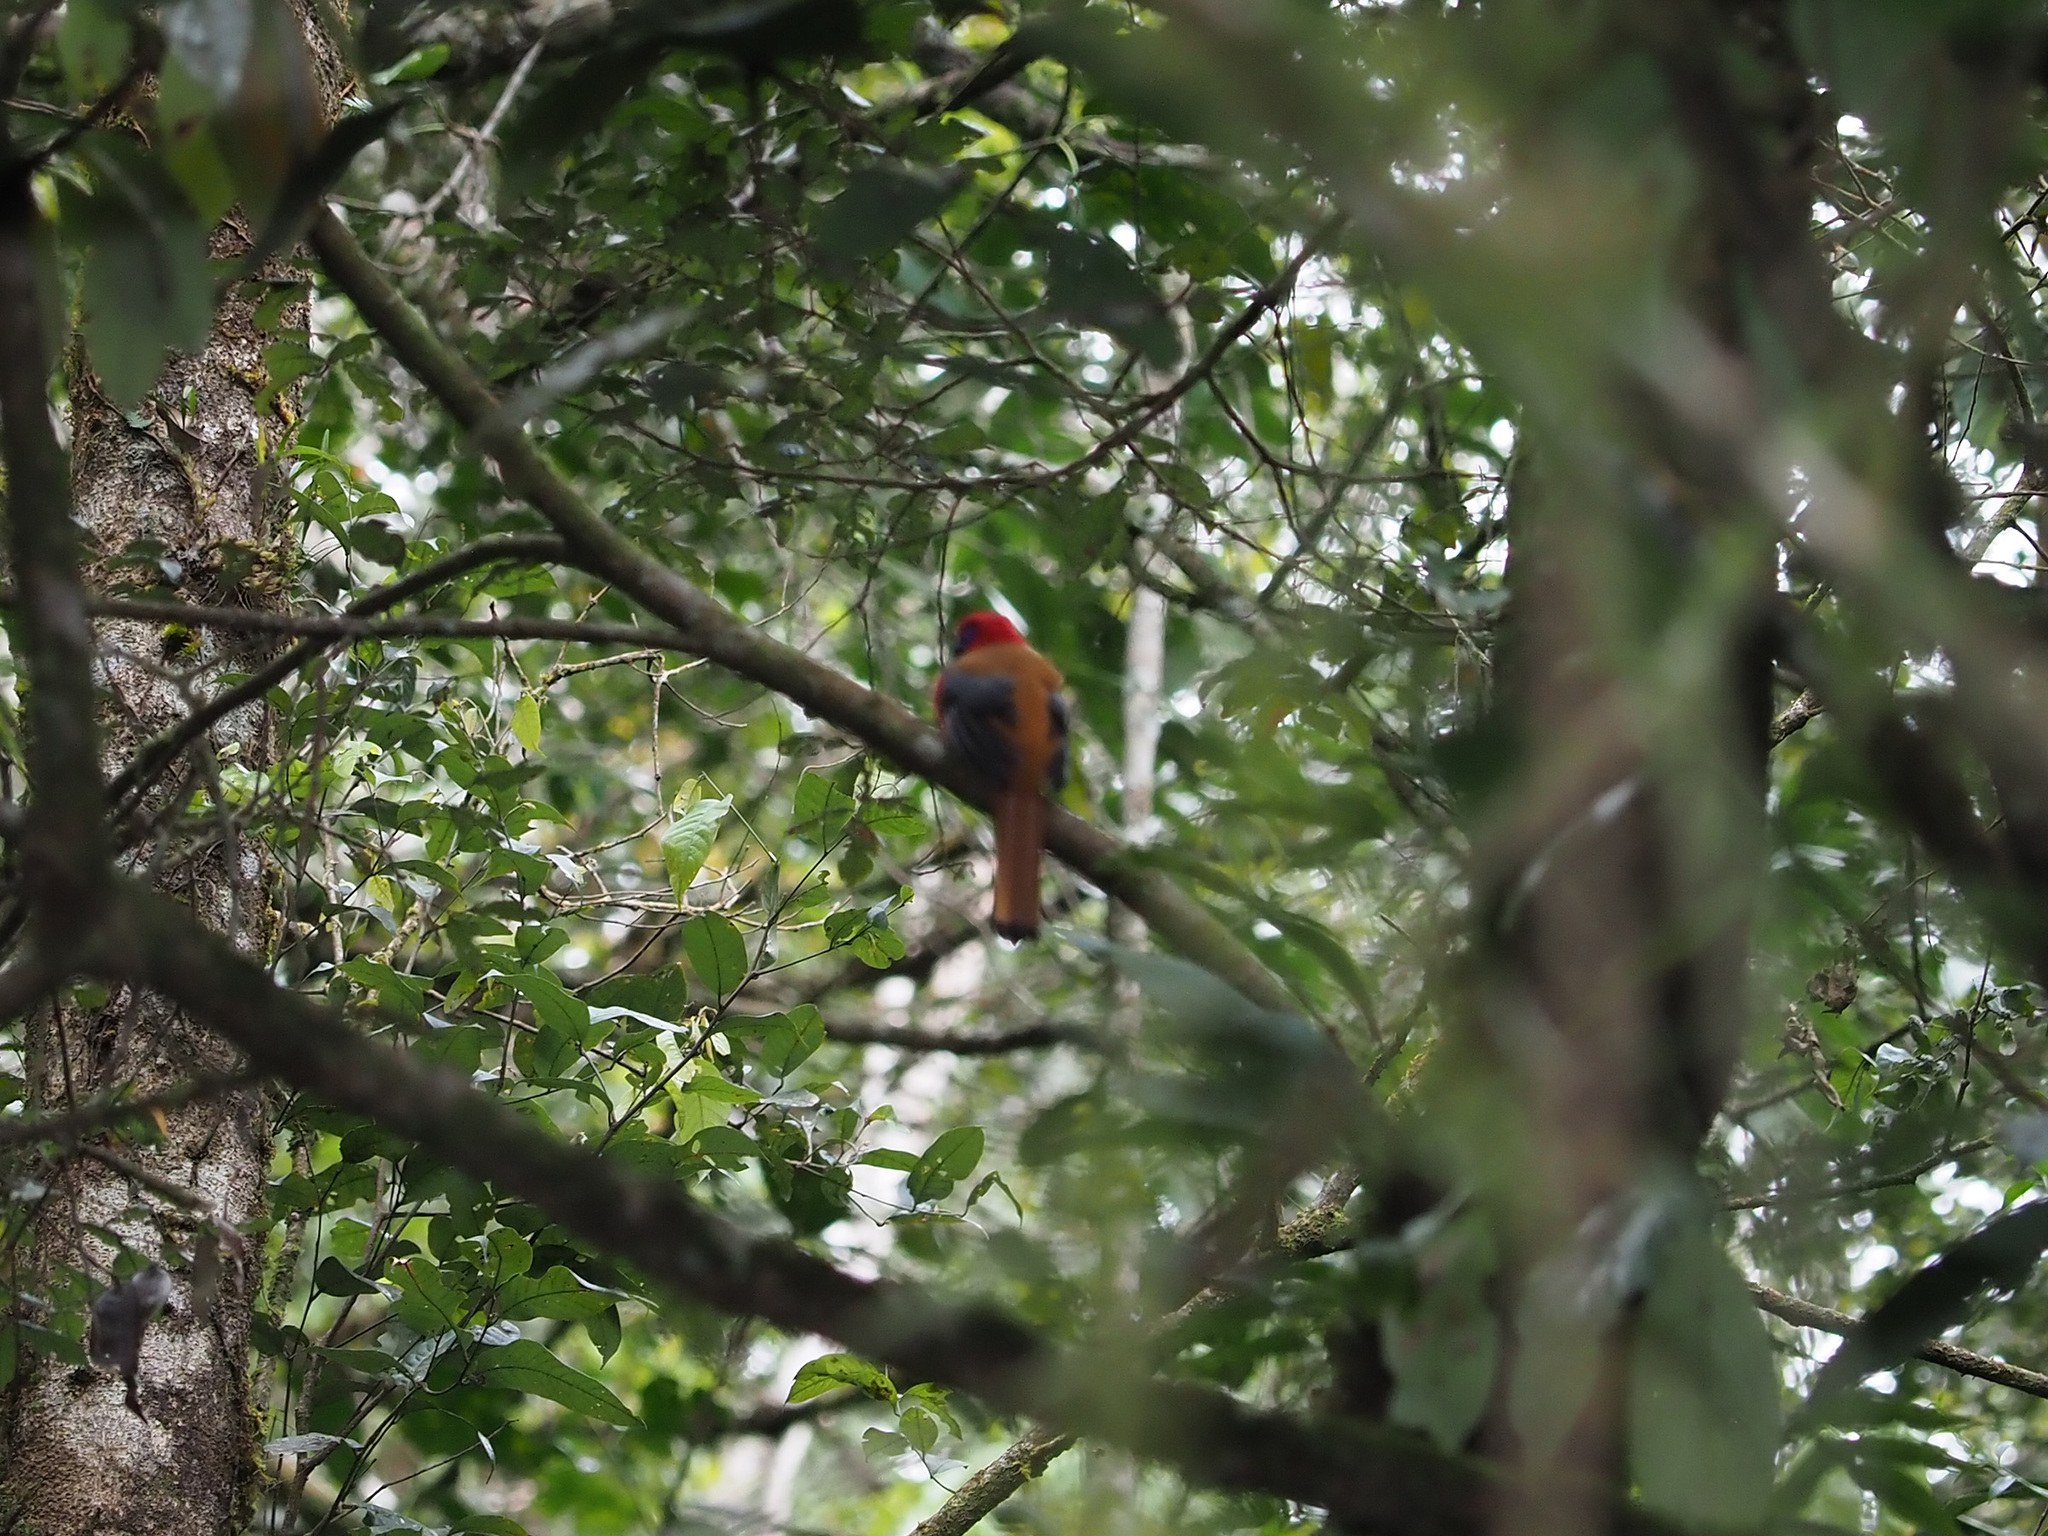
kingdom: Animalia
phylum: Chordata
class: Aves
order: Trogoniformes
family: Trogonidae
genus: Harpactes
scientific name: Harpactes whiteheadi
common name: Whitehead's trogon
